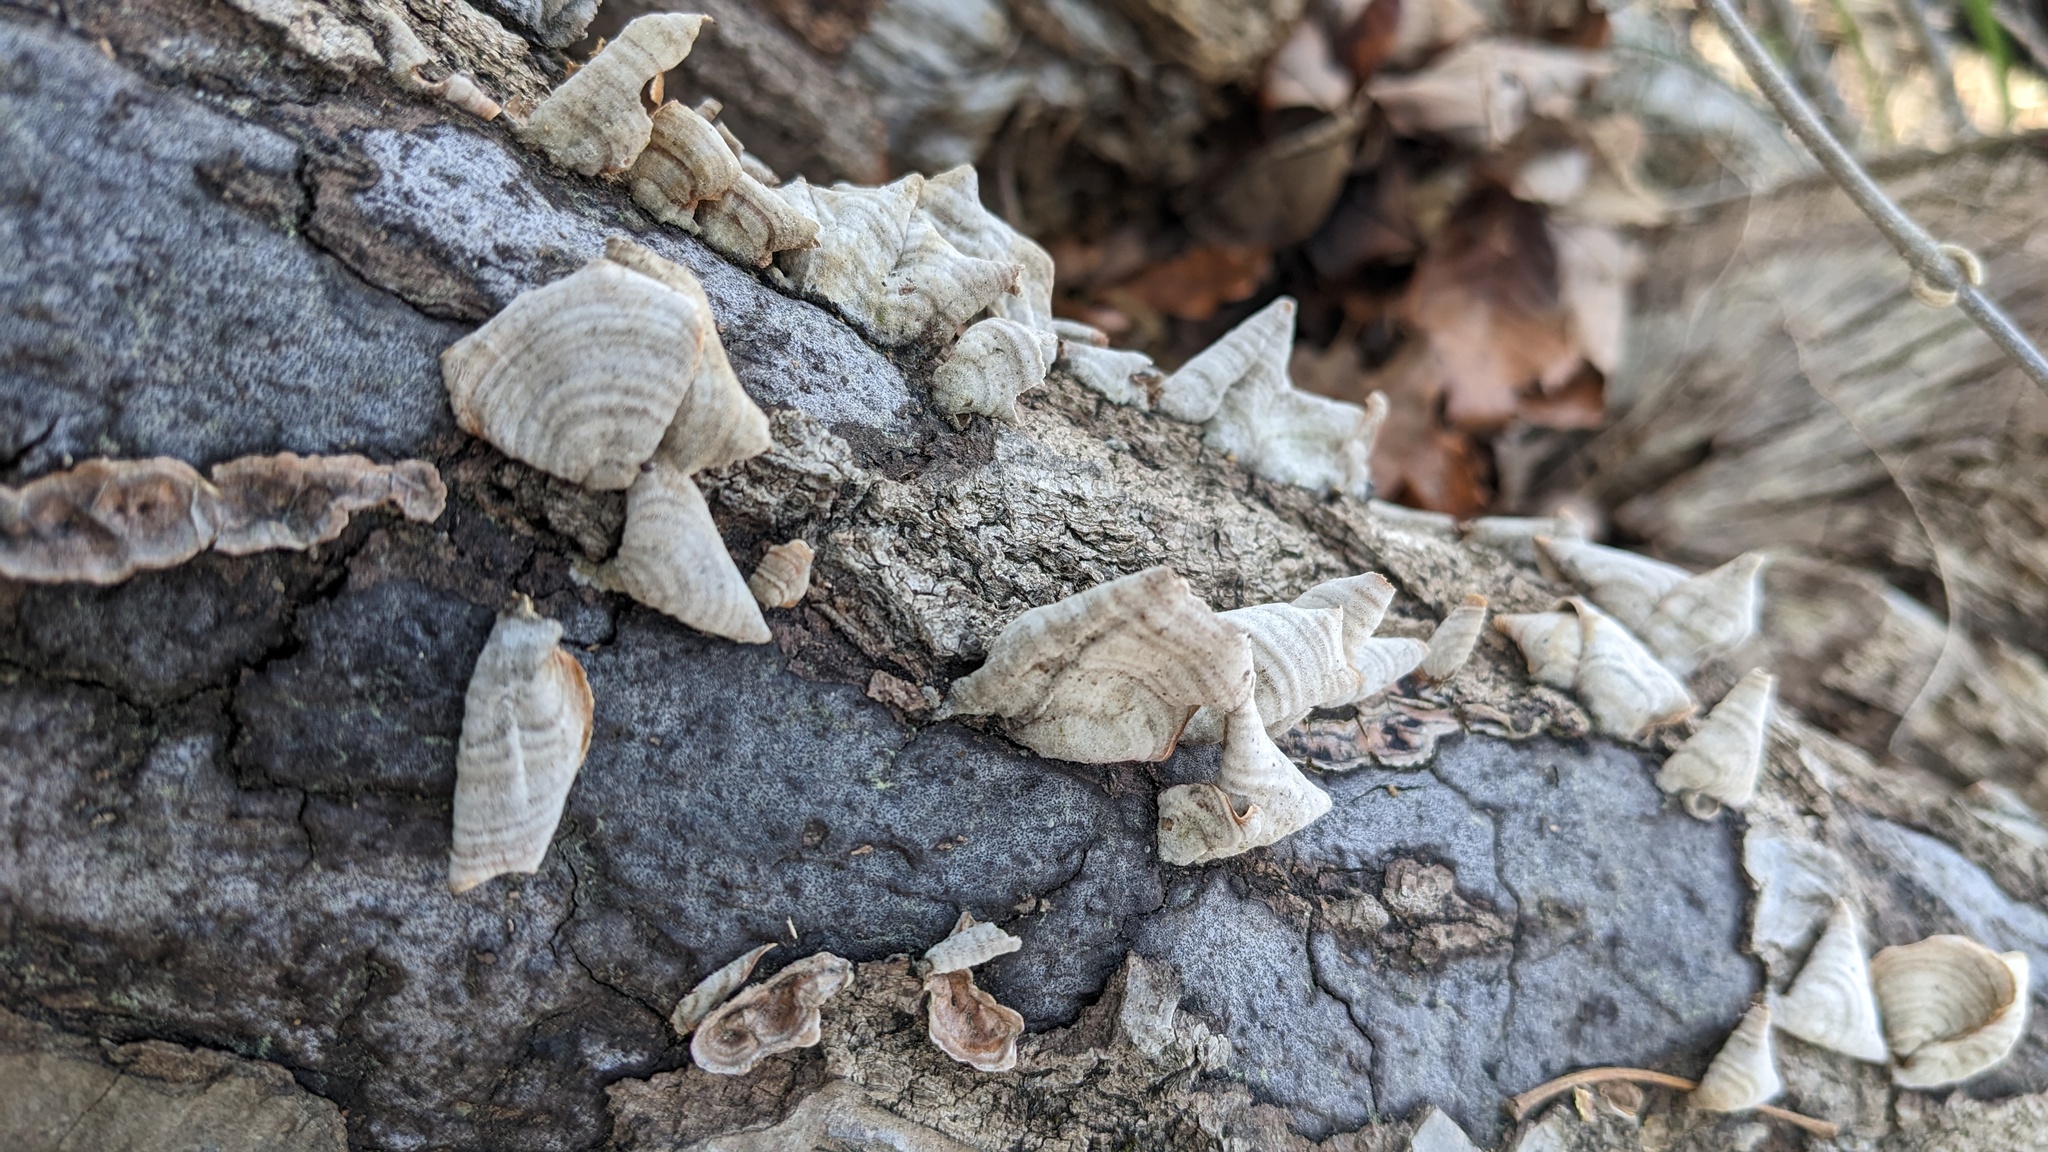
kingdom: Fungi
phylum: Basidiomycota
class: Agaricomycetes
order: Russulales
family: Stereaceae
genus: Stereum
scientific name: Stereum ostrea
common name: False turkeytail
